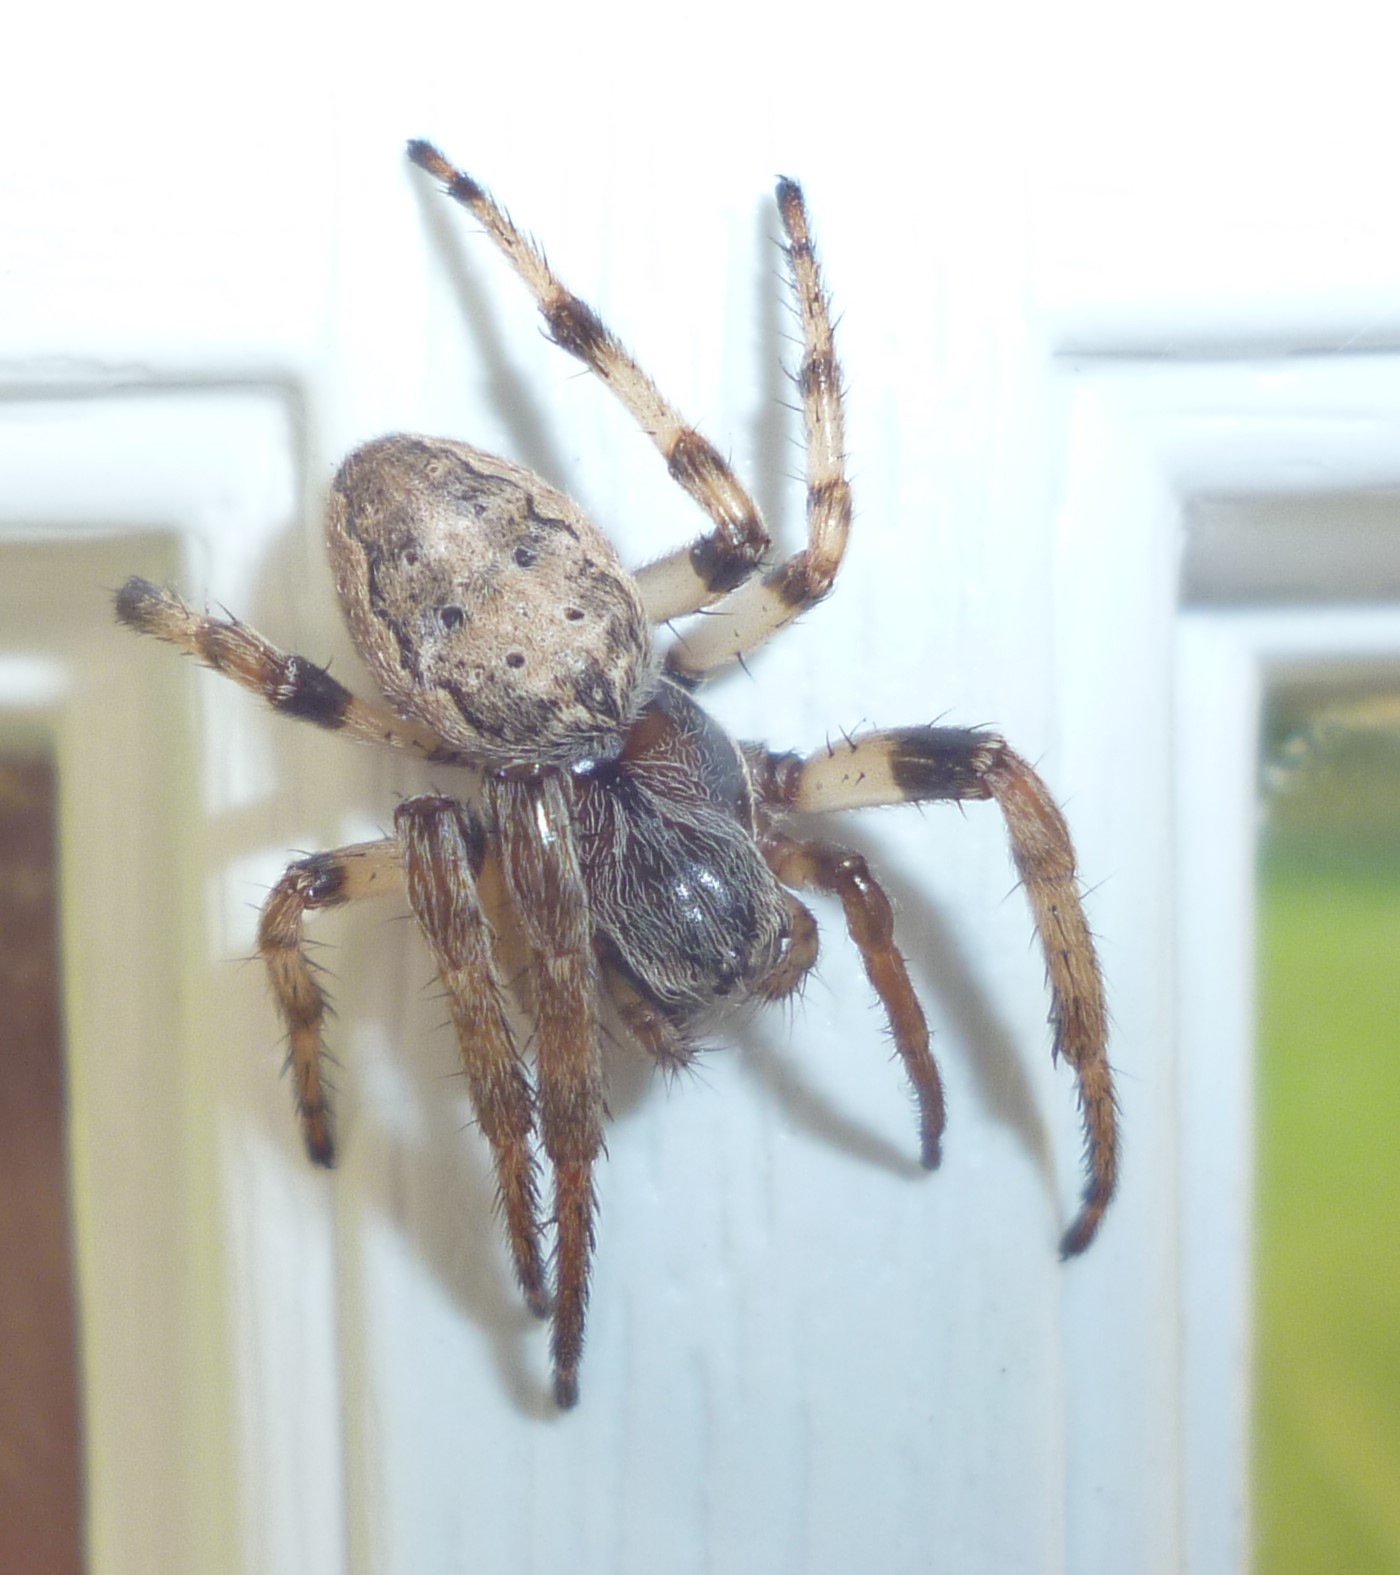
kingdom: Animalia
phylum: Arthropoda
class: Arachnida
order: Araneae
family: Araneidae
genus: Larinioides
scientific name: Larinioides cornutus
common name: Furrow orbweaver
